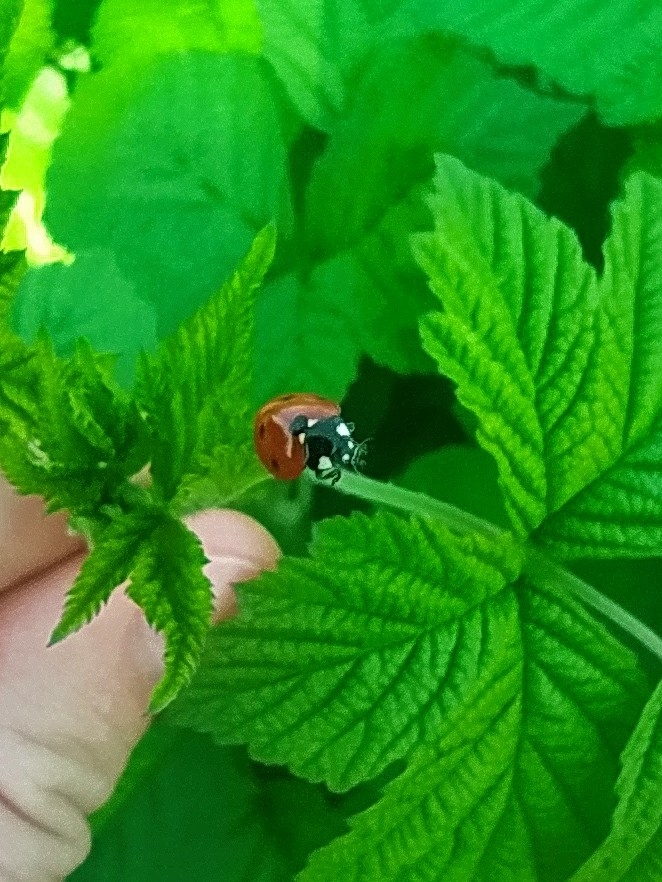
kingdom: Animalia
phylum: Arthropoda
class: Insecta
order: Coleoptera
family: Coccinellidae
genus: Coccinella
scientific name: Coccinella septempunctata
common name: Sevenspotted lady beetle
